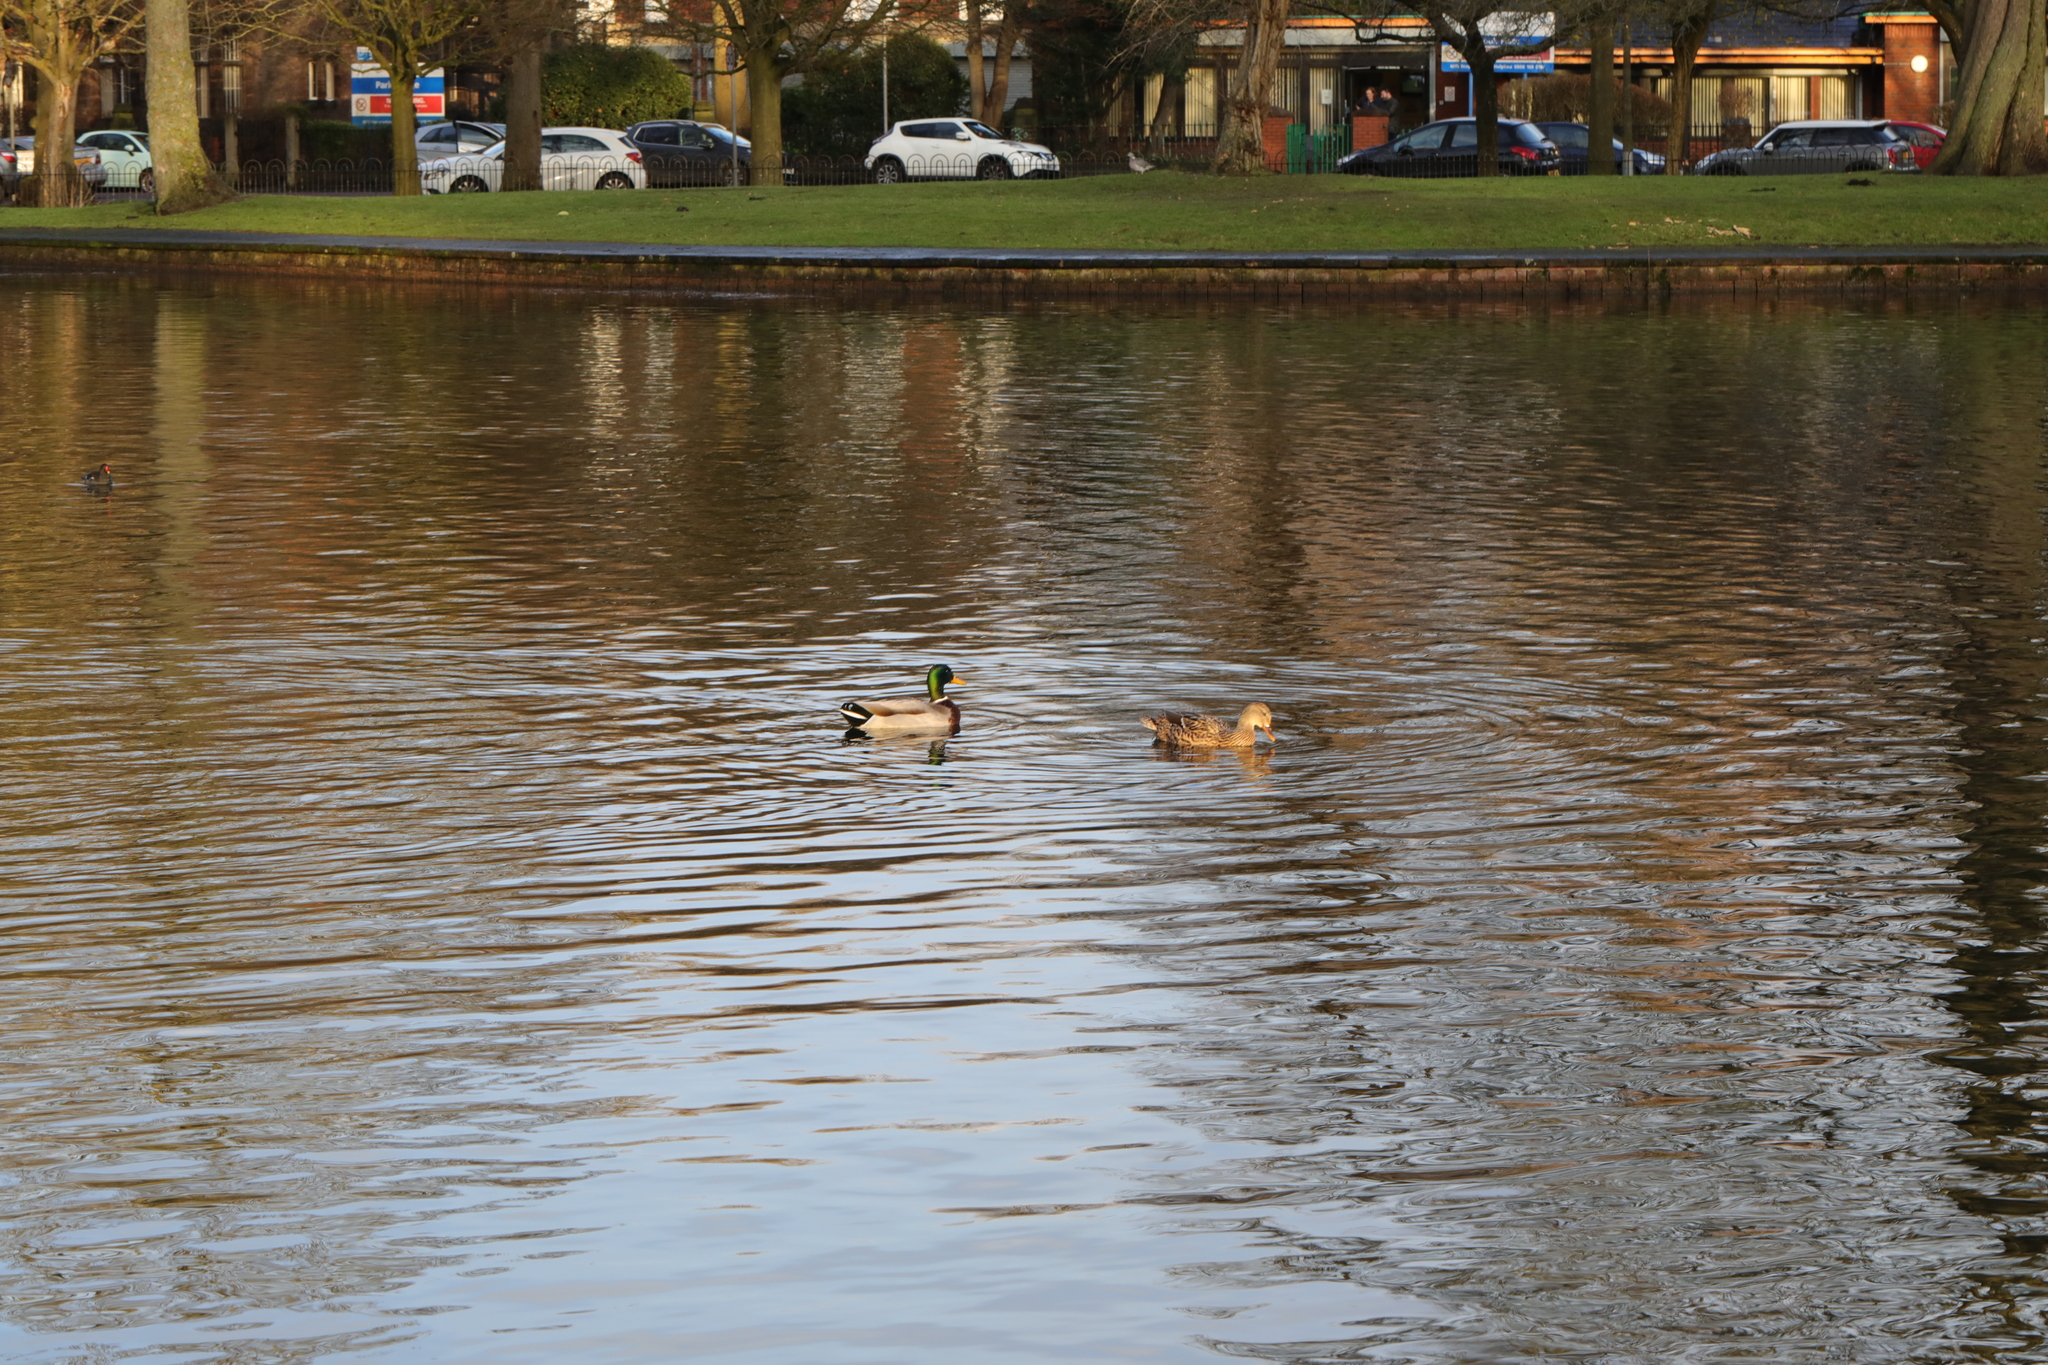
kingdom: Animalia
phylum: Chordata
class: Aves
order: Anseriformes
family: Anatidae
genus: Anas
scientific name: Anas platyrhynchos
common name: Mallard
